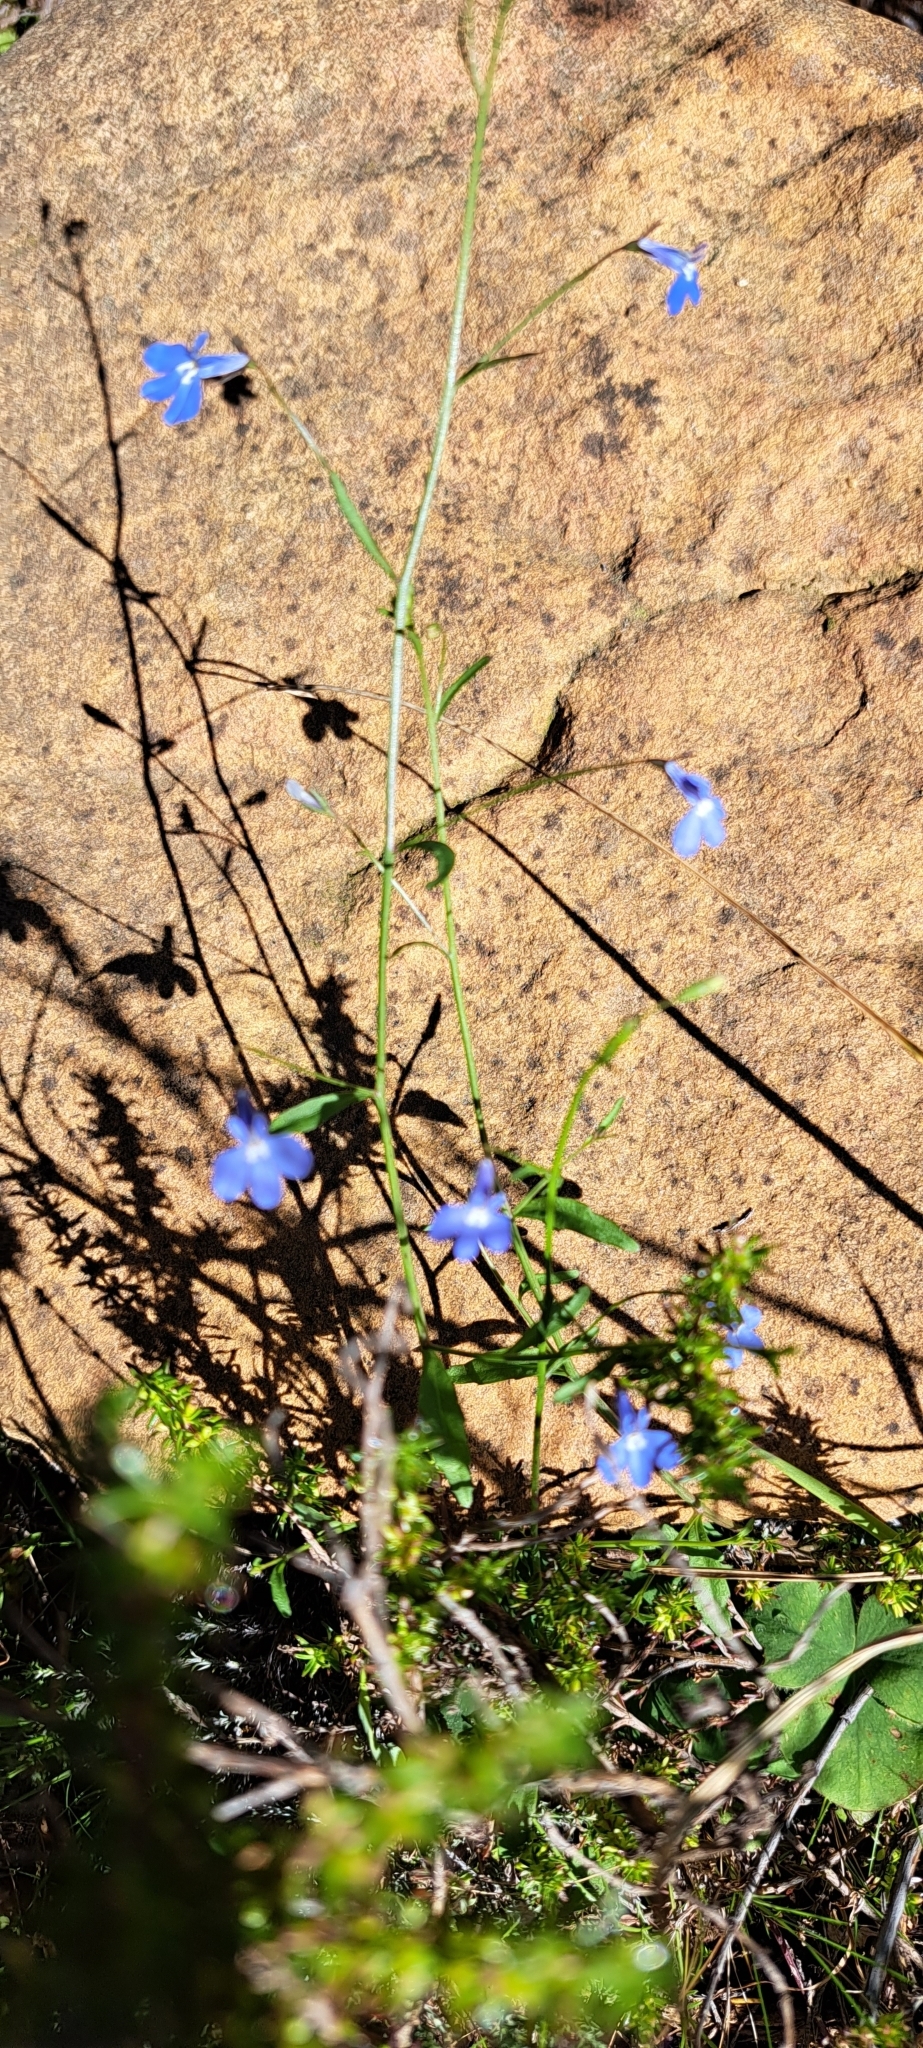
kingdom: Plantae
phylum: Tracheophyta
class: Magnoliopsida
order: Asterales
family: Campanulaceae
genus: Lobelia
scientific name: Lobelia erinus
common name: Edging lobelia
